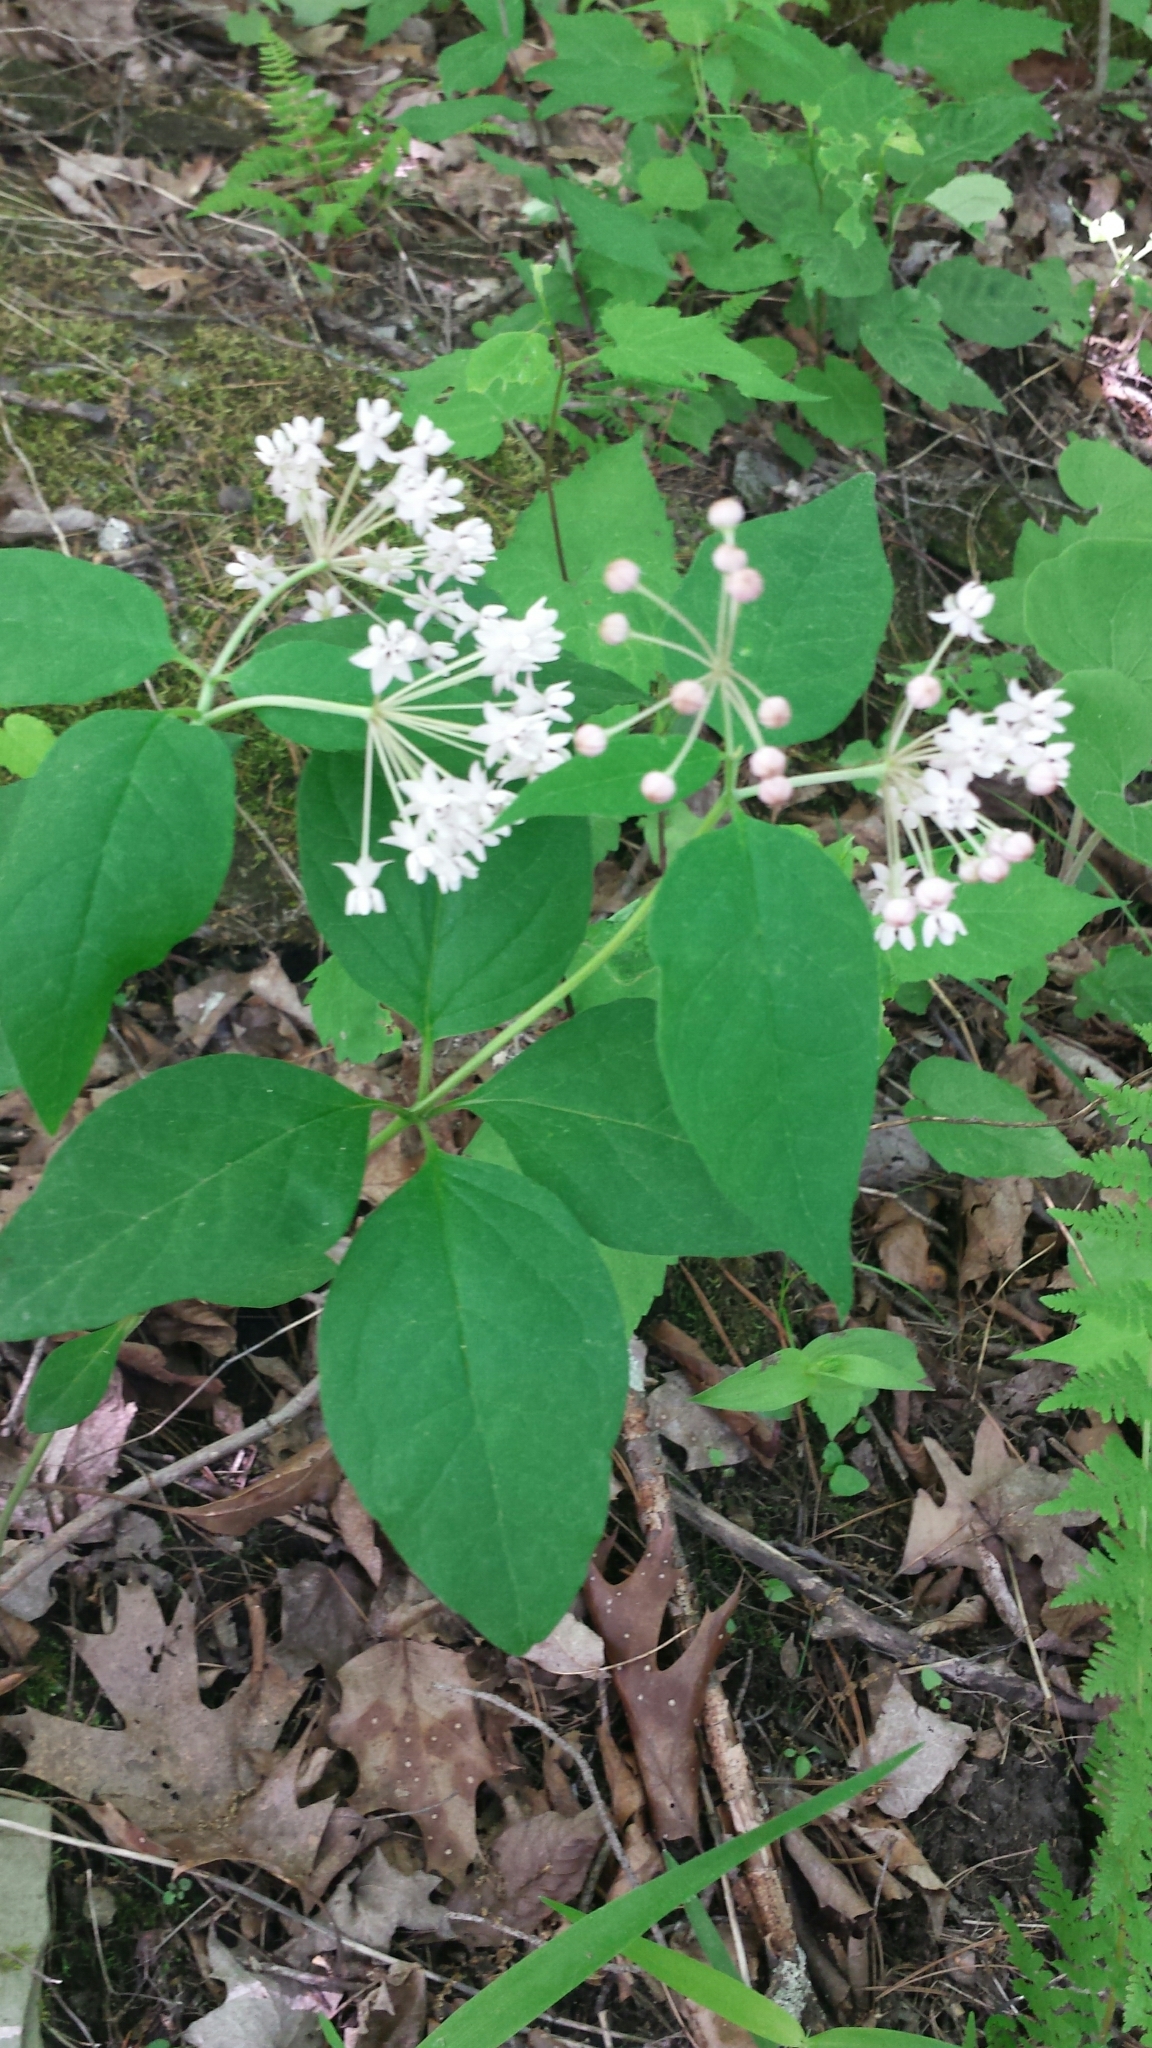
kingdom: Plantae
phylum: Tracheophyta
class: Magnoliopsida
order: Gentianales
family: Apocynaceae
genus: Asclepias
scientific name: Asclepias quadrifolia
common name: Whorled milkweed
